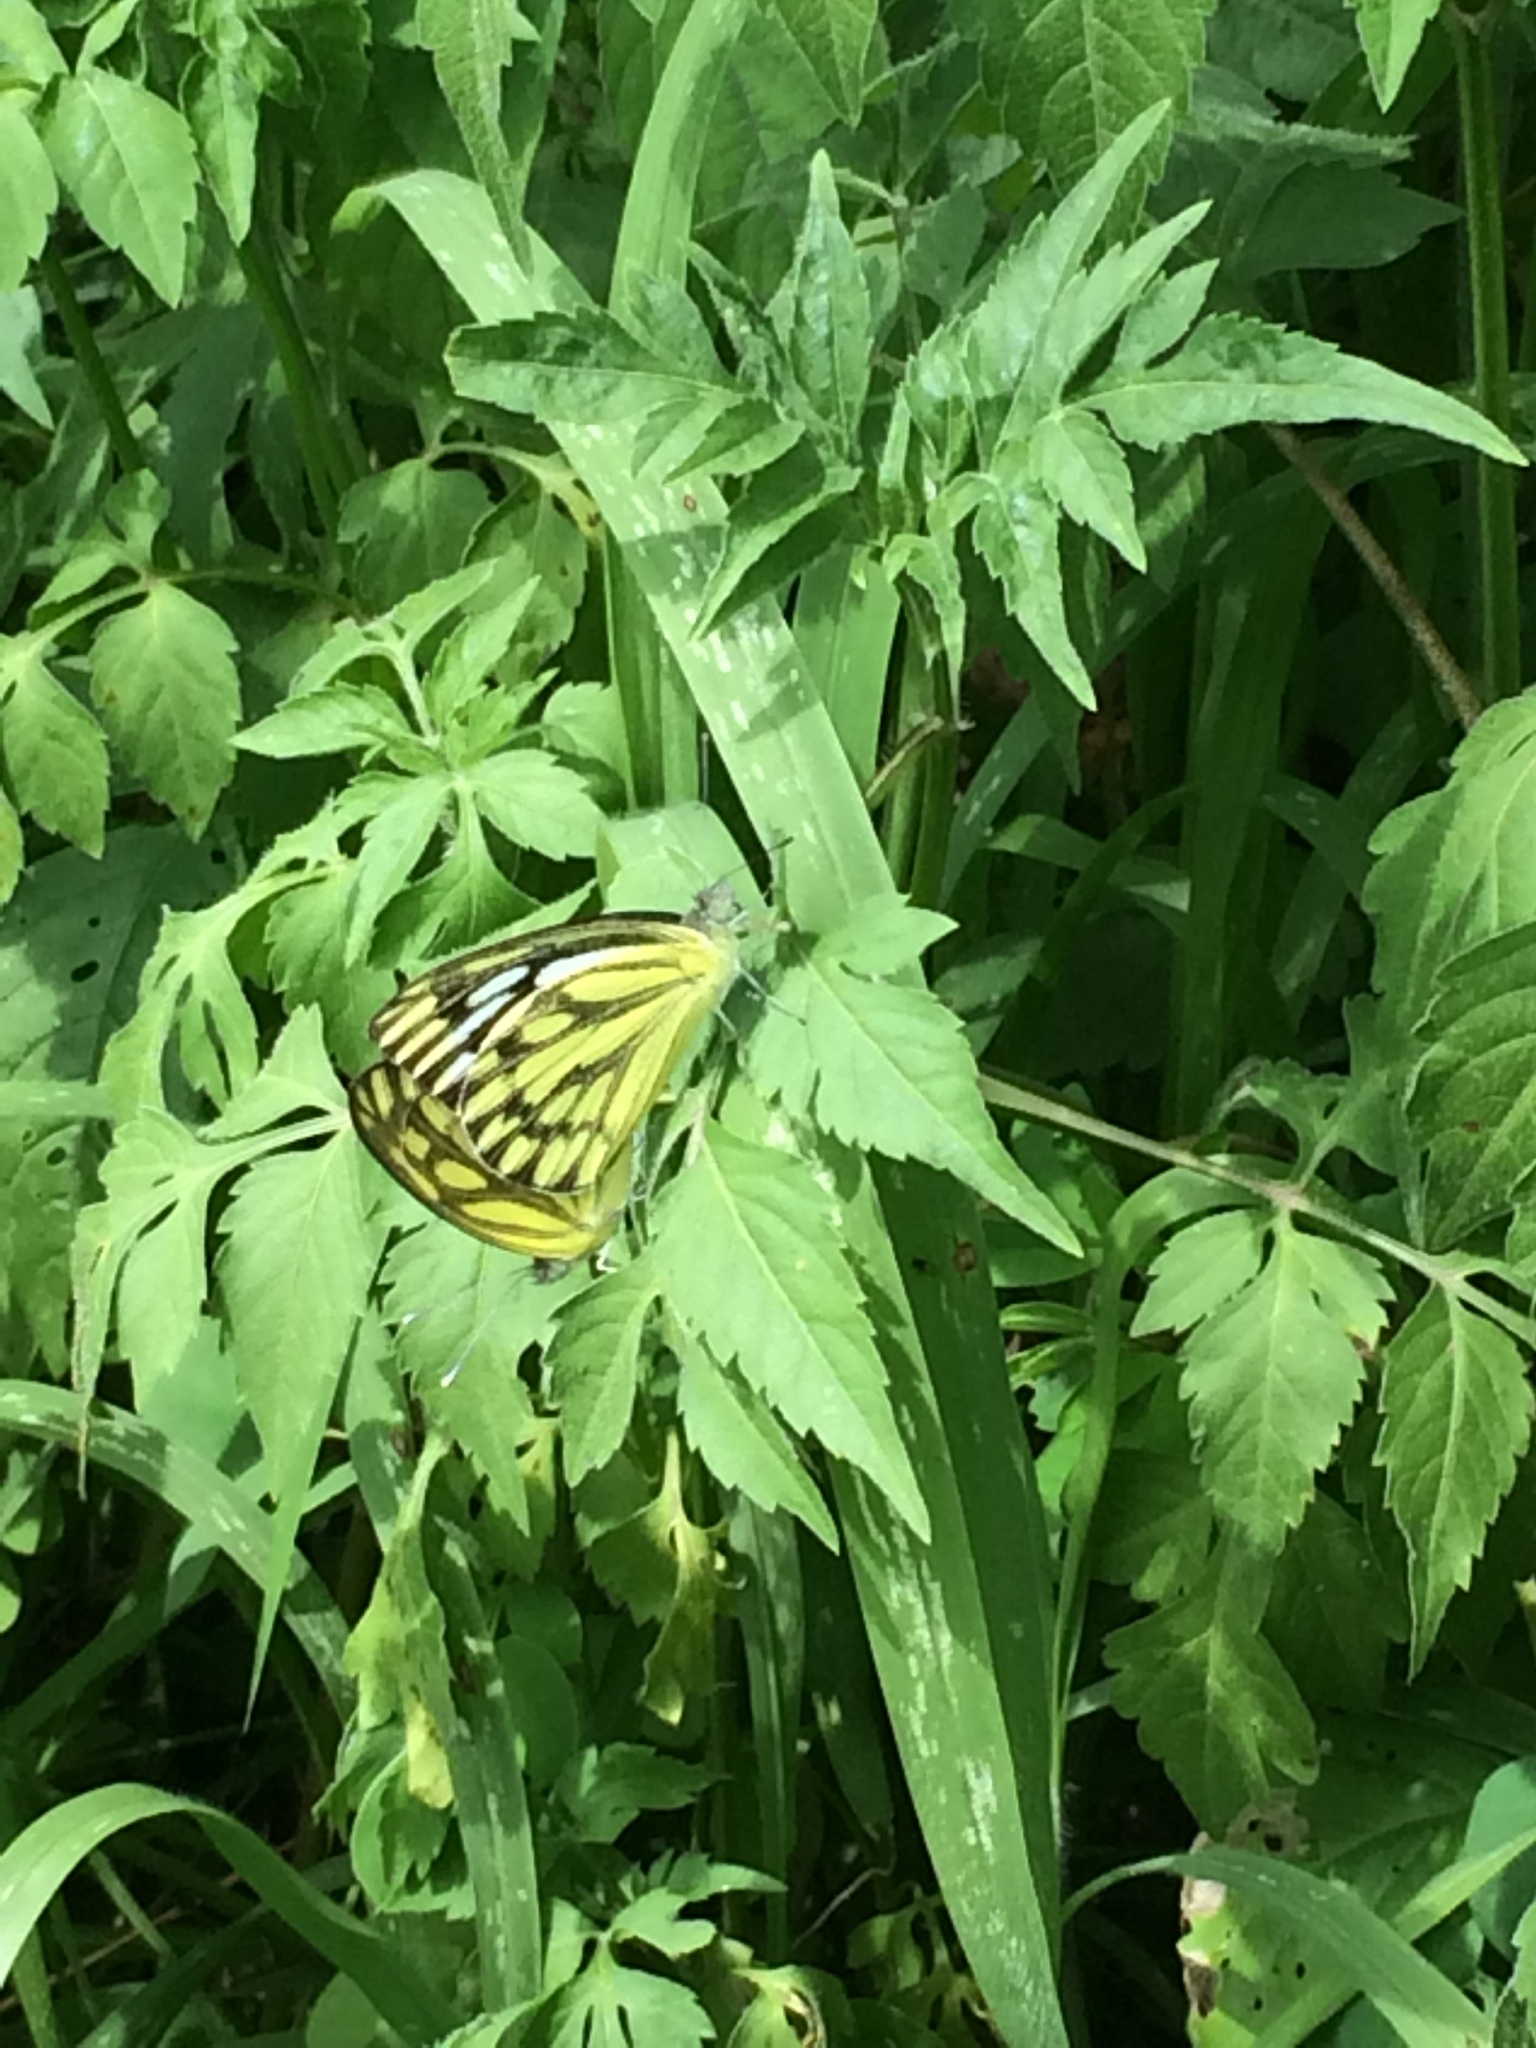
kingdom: Animalia
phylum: Arthropoda
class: Insecta
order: Lepidoptera
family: Pieridae
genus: Cepora
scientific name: Cepora nerissa
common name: Common gull
